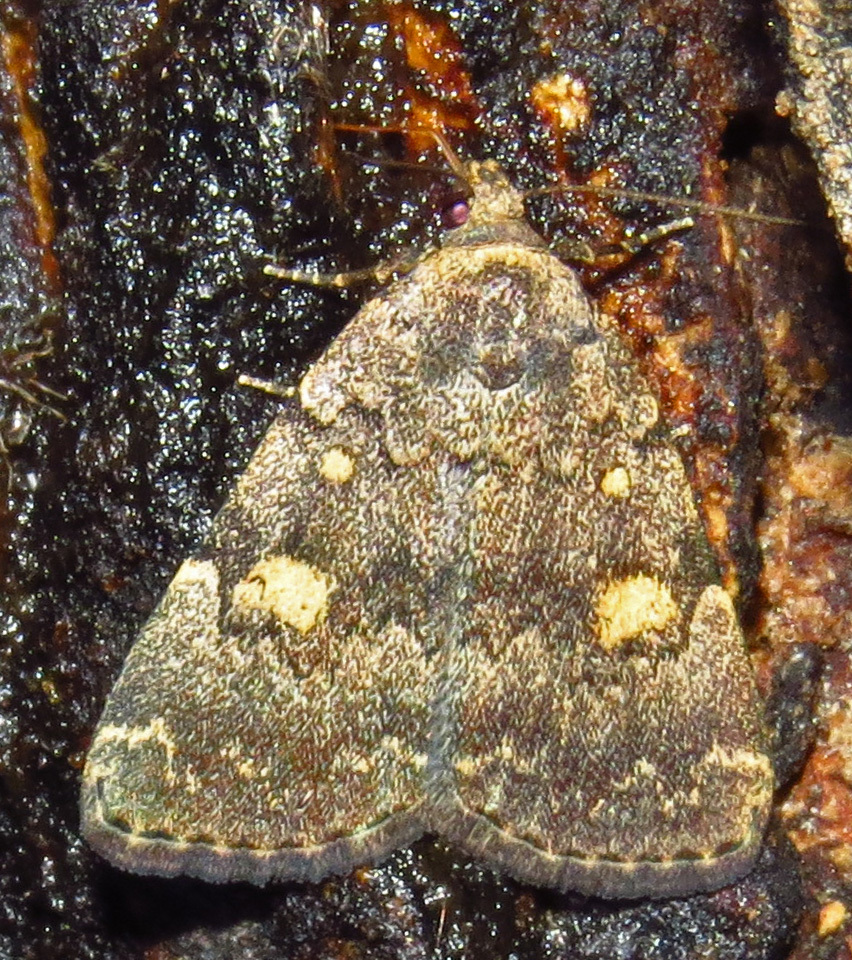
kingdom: Animalia
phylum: Arthropoda
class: Insecta
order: Lepidoptera
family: Erebidae
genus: Idia
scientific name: Idia aemula
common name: Common idia moth
